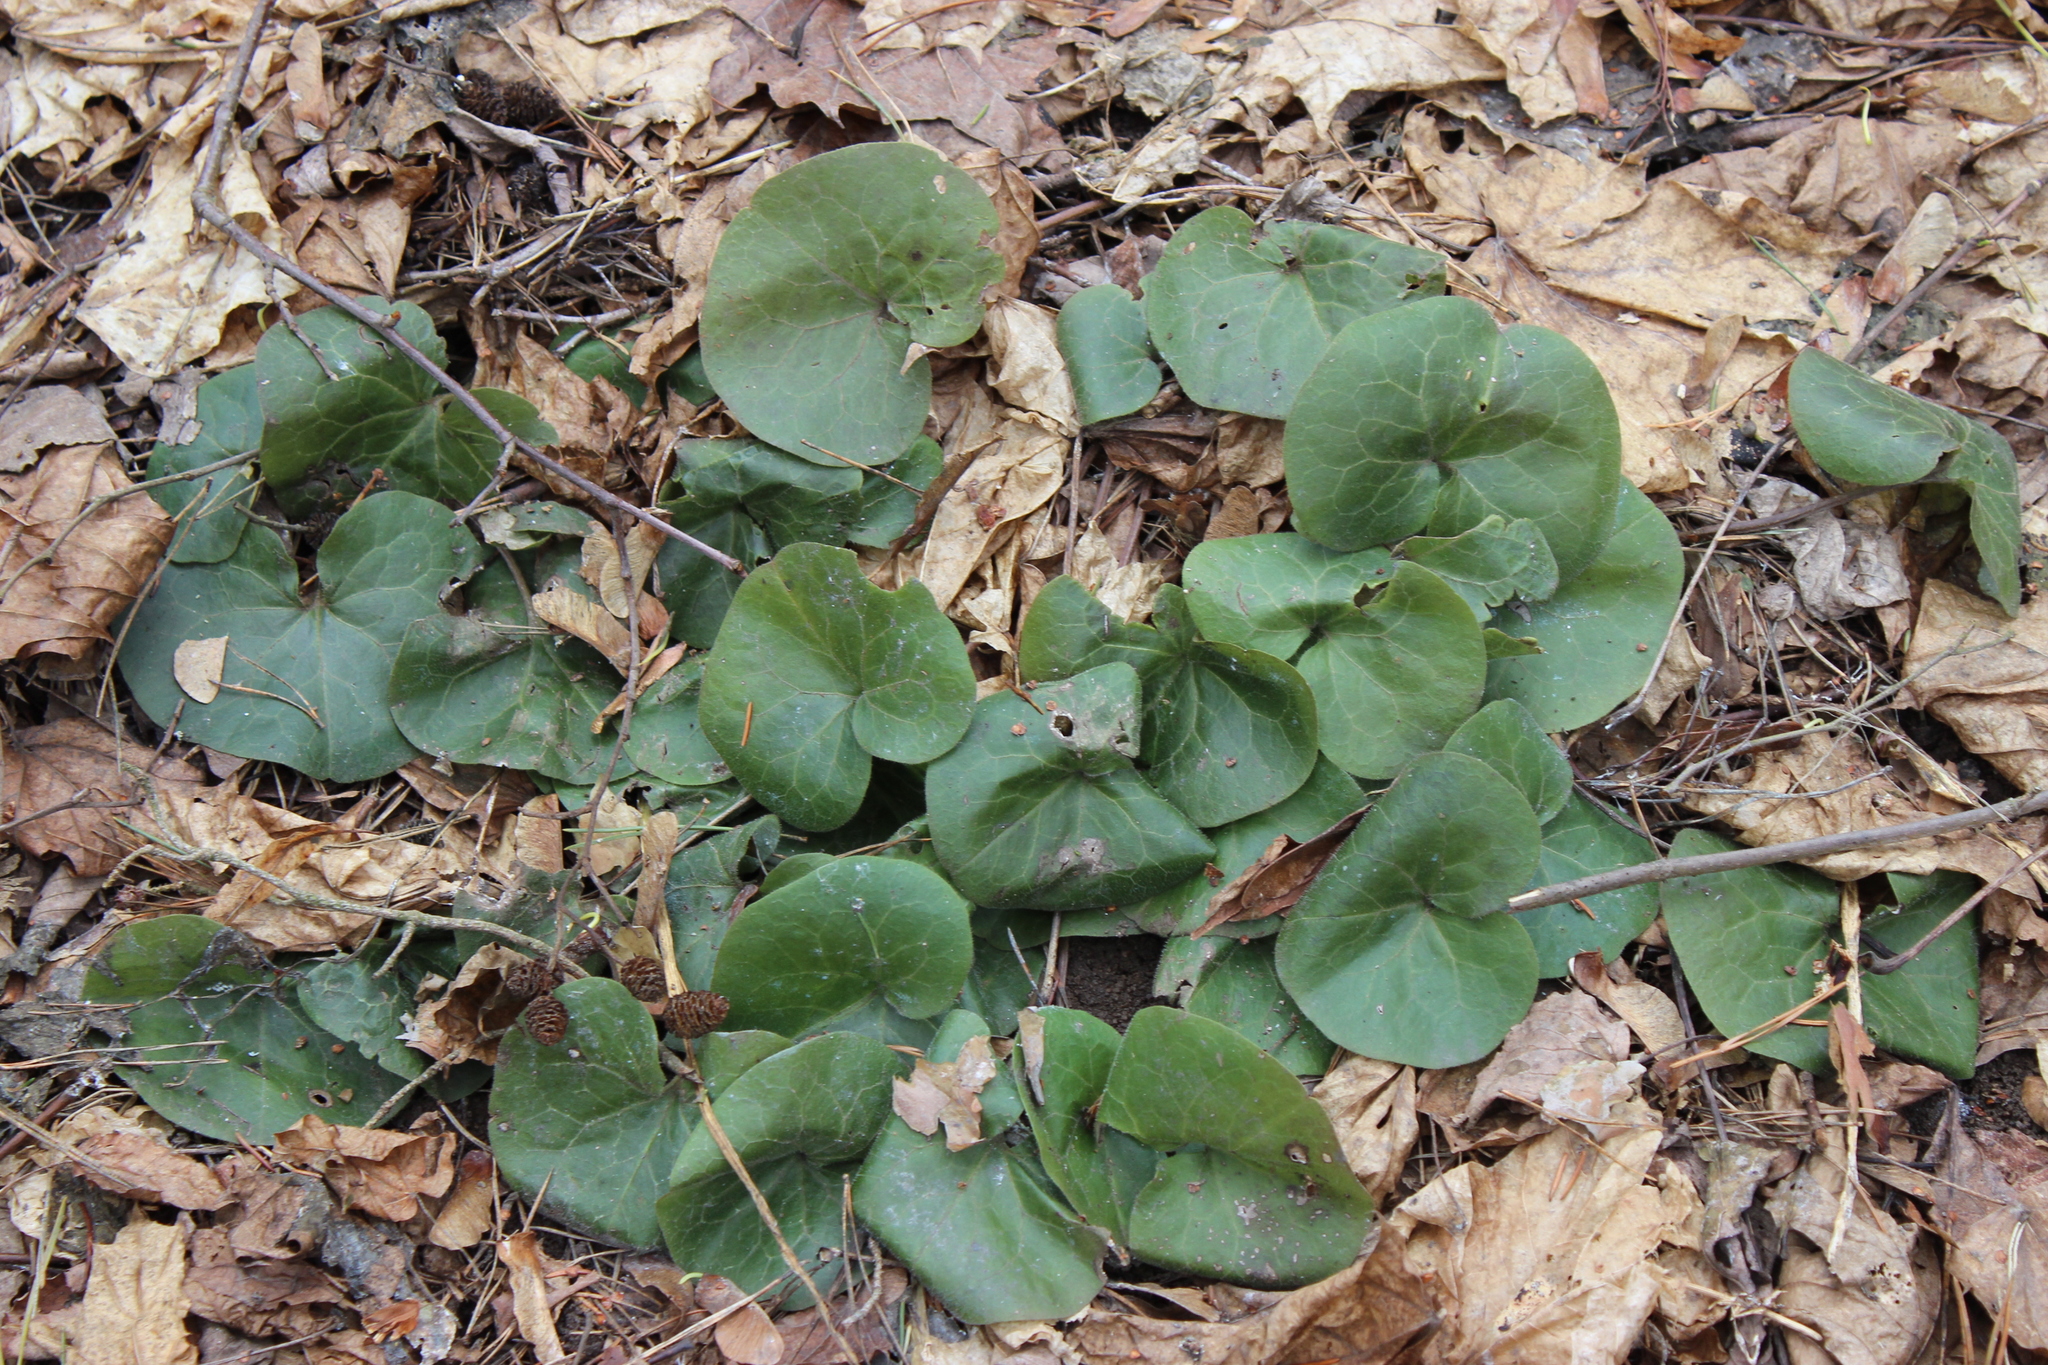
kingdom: Plantae
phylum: Tracheophyta
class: Magnoliopsida
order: Piperales
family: Aristolochiaceae
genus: Asarum
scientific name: Asarum europaeum
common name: Asarabacca
